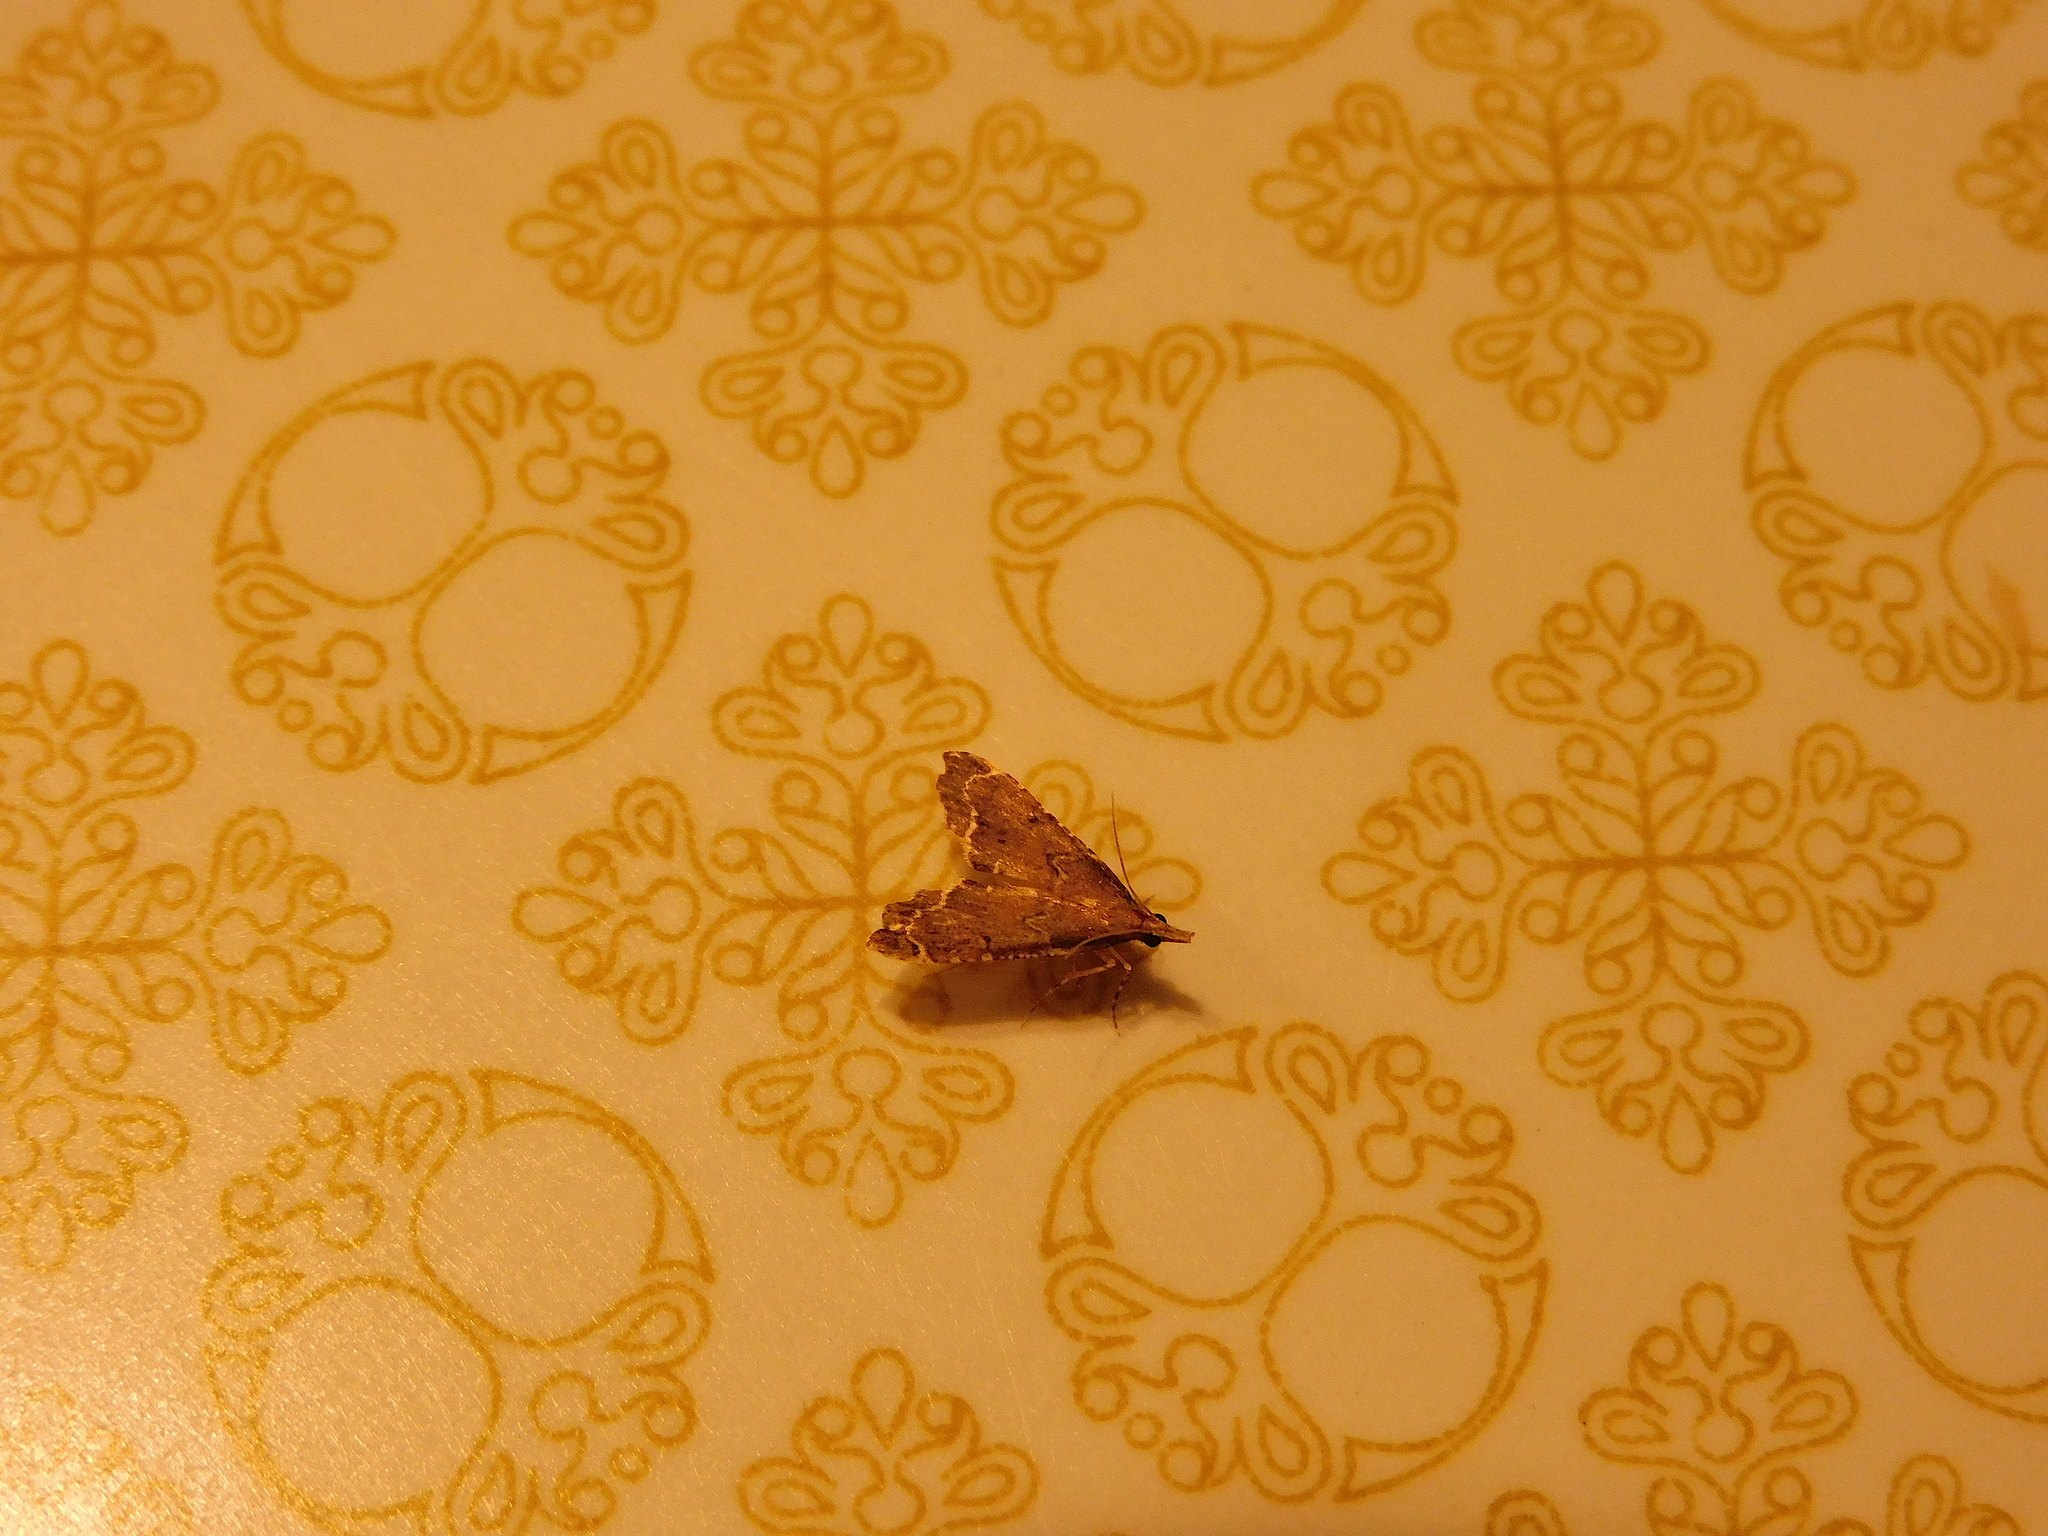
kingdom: Animalia
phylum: Arthropoda
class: Insecta
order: Lepidoptera
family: Crambidae
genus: Diplopseustis
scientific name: Diplopseustis perieresalis
